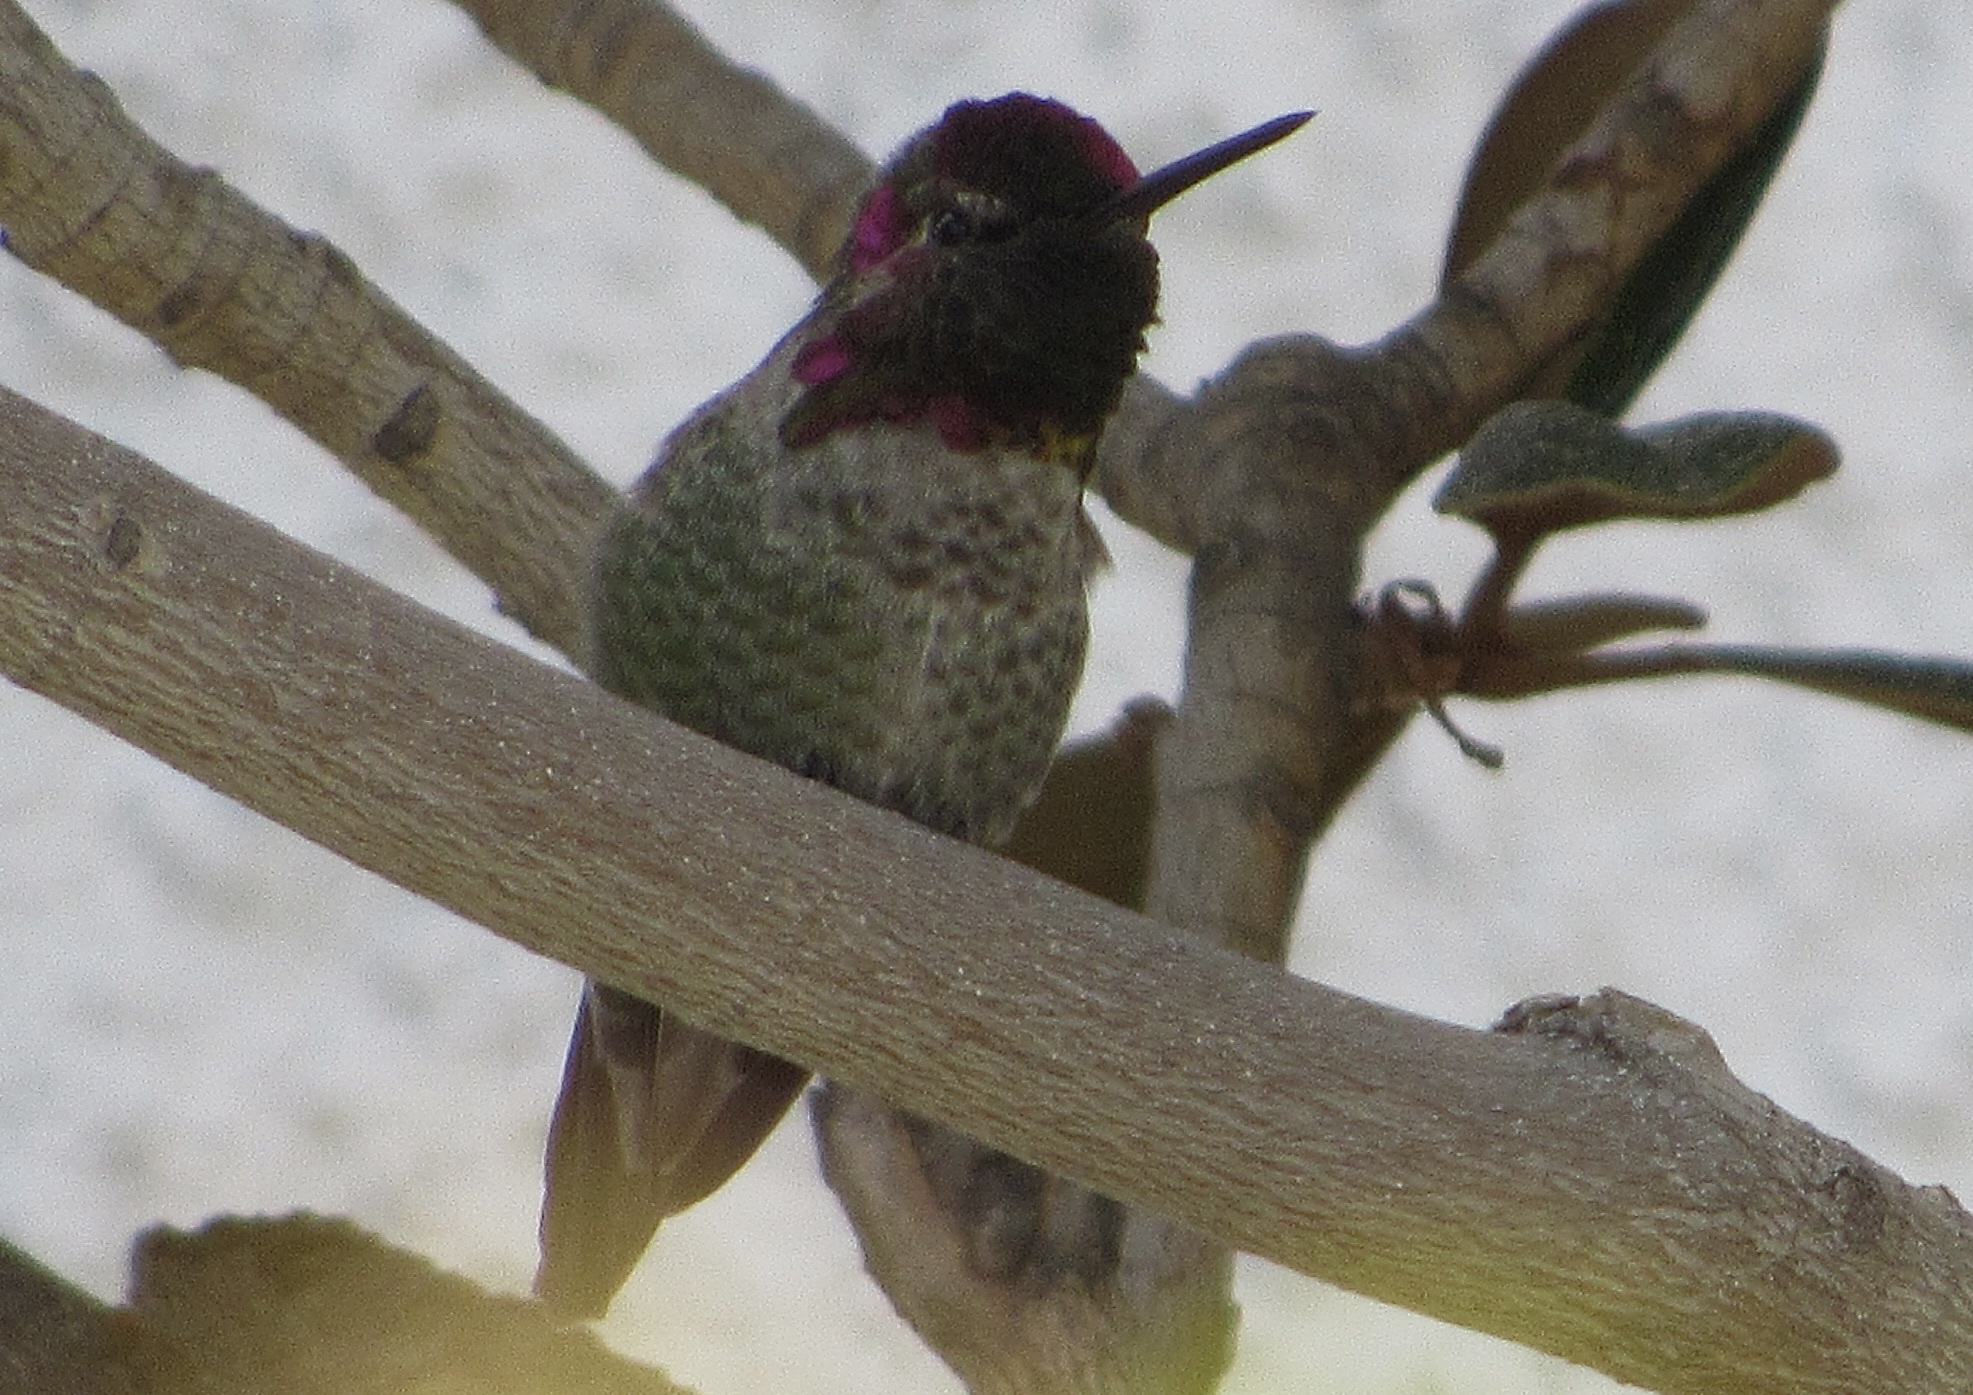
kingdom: Animalia
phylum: Chordata
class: Aves
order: Apodiformes
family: Trochilidae
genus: Calypte
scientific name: Calypte anna
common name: Anna's hummingbird
